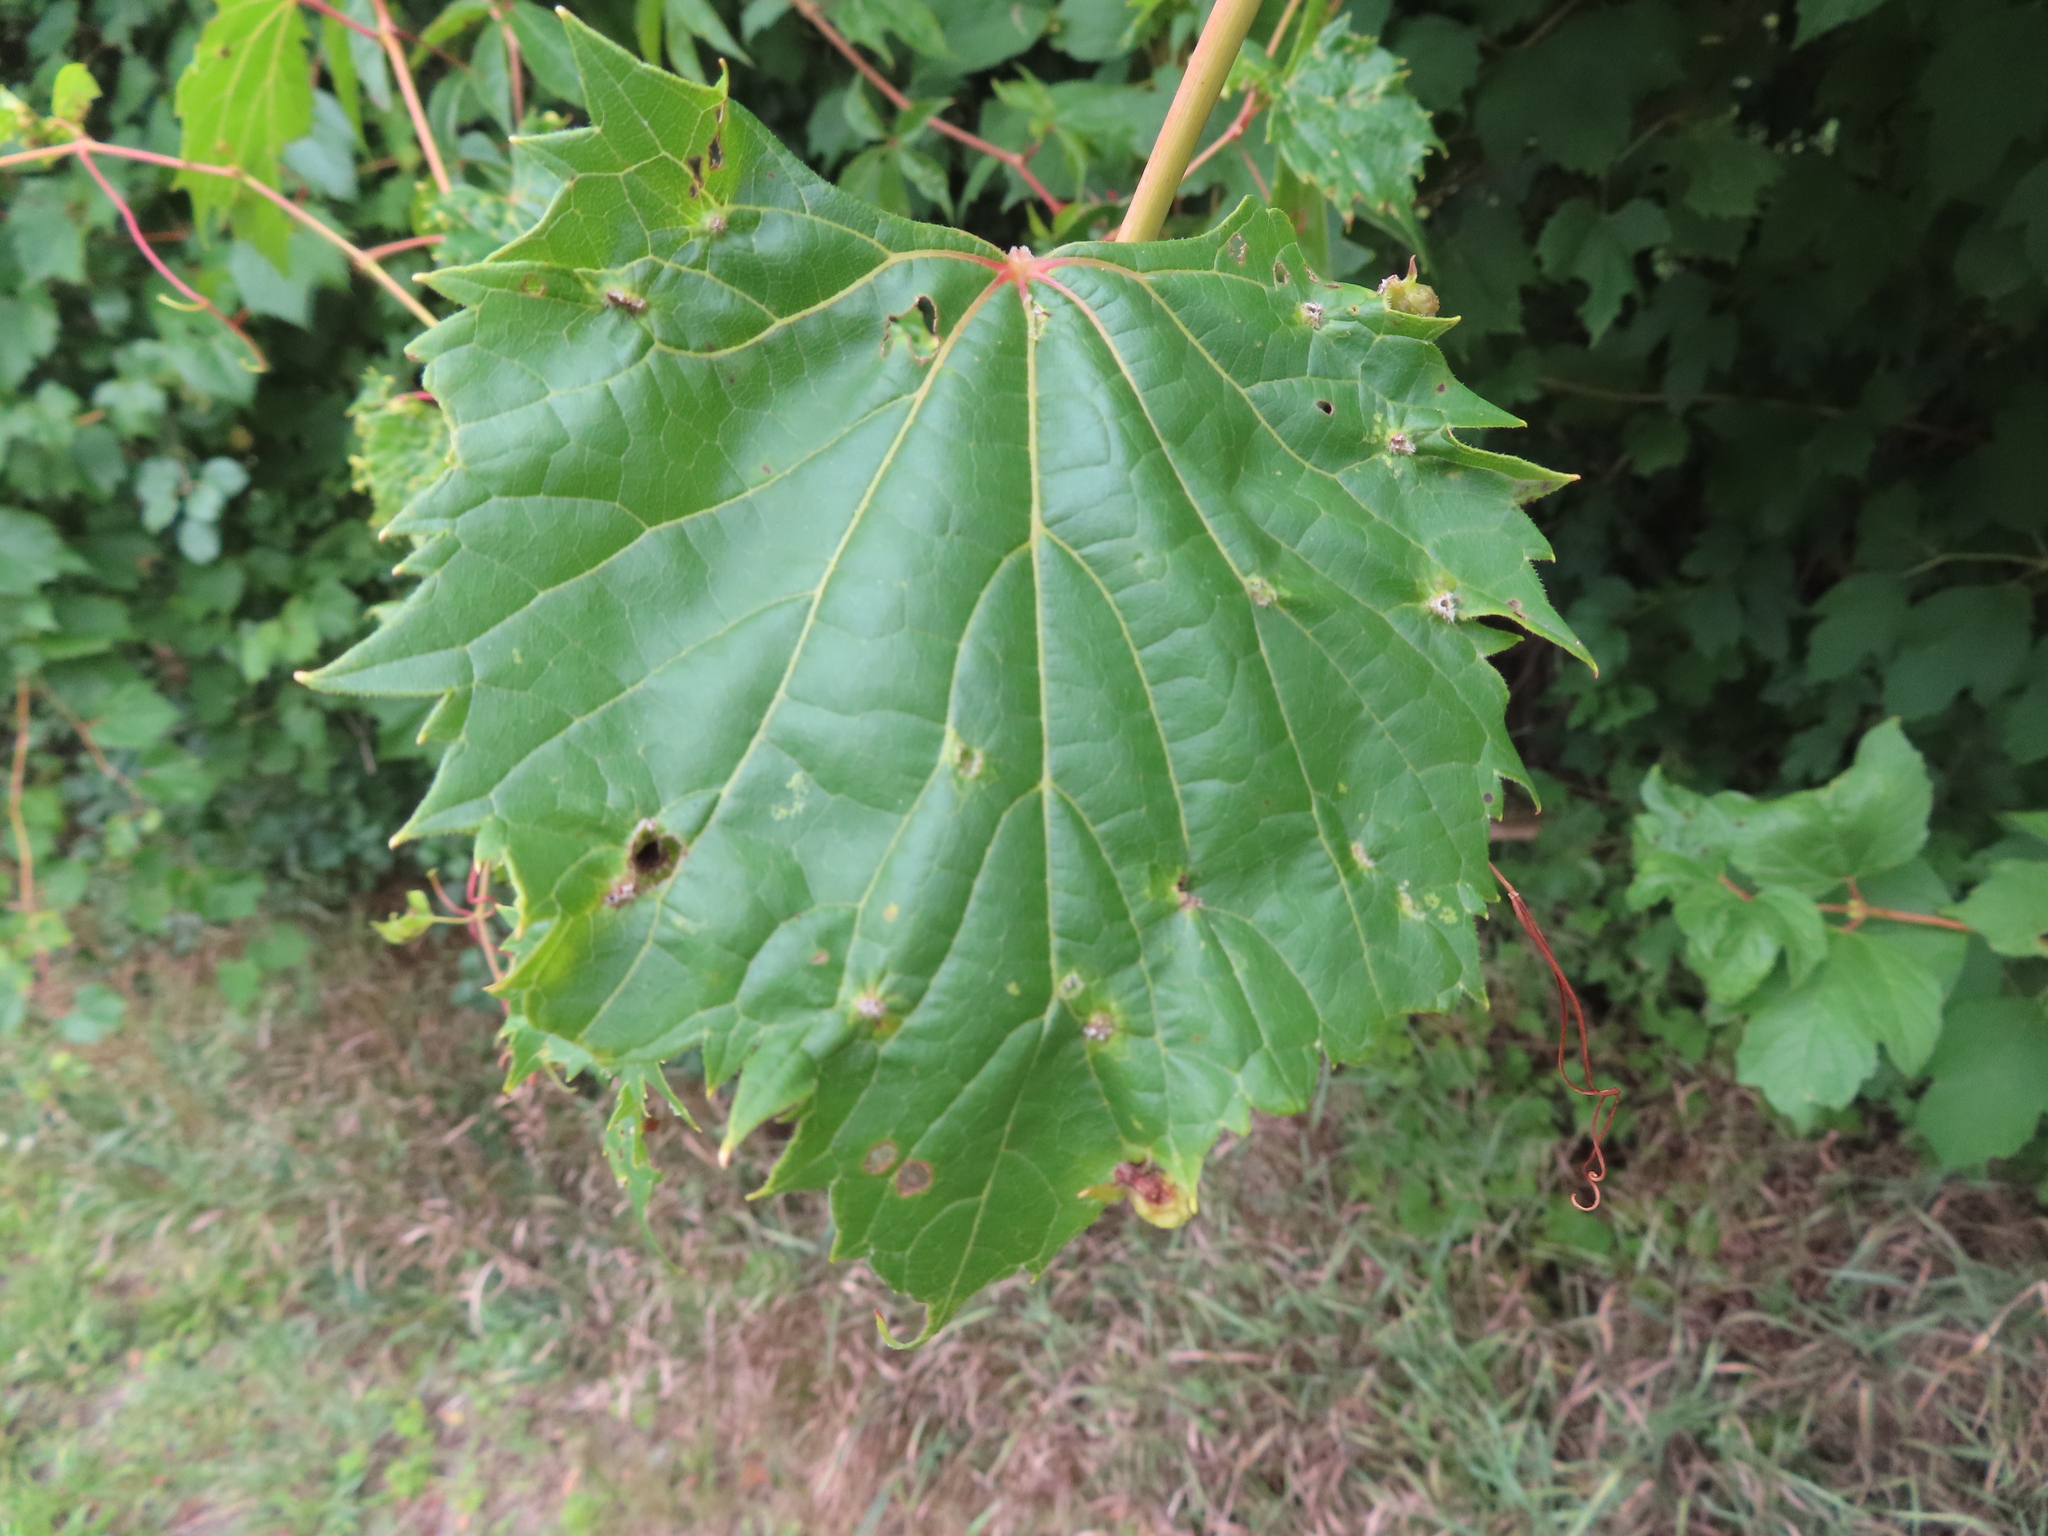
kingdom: Animalia
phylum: Arthropoda
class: Insecta
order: Hemiptera
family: Phylloxeridae
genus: Daktulosphaira
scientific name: Daktulosphaira vitifoliae
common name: Grape phylloxera
